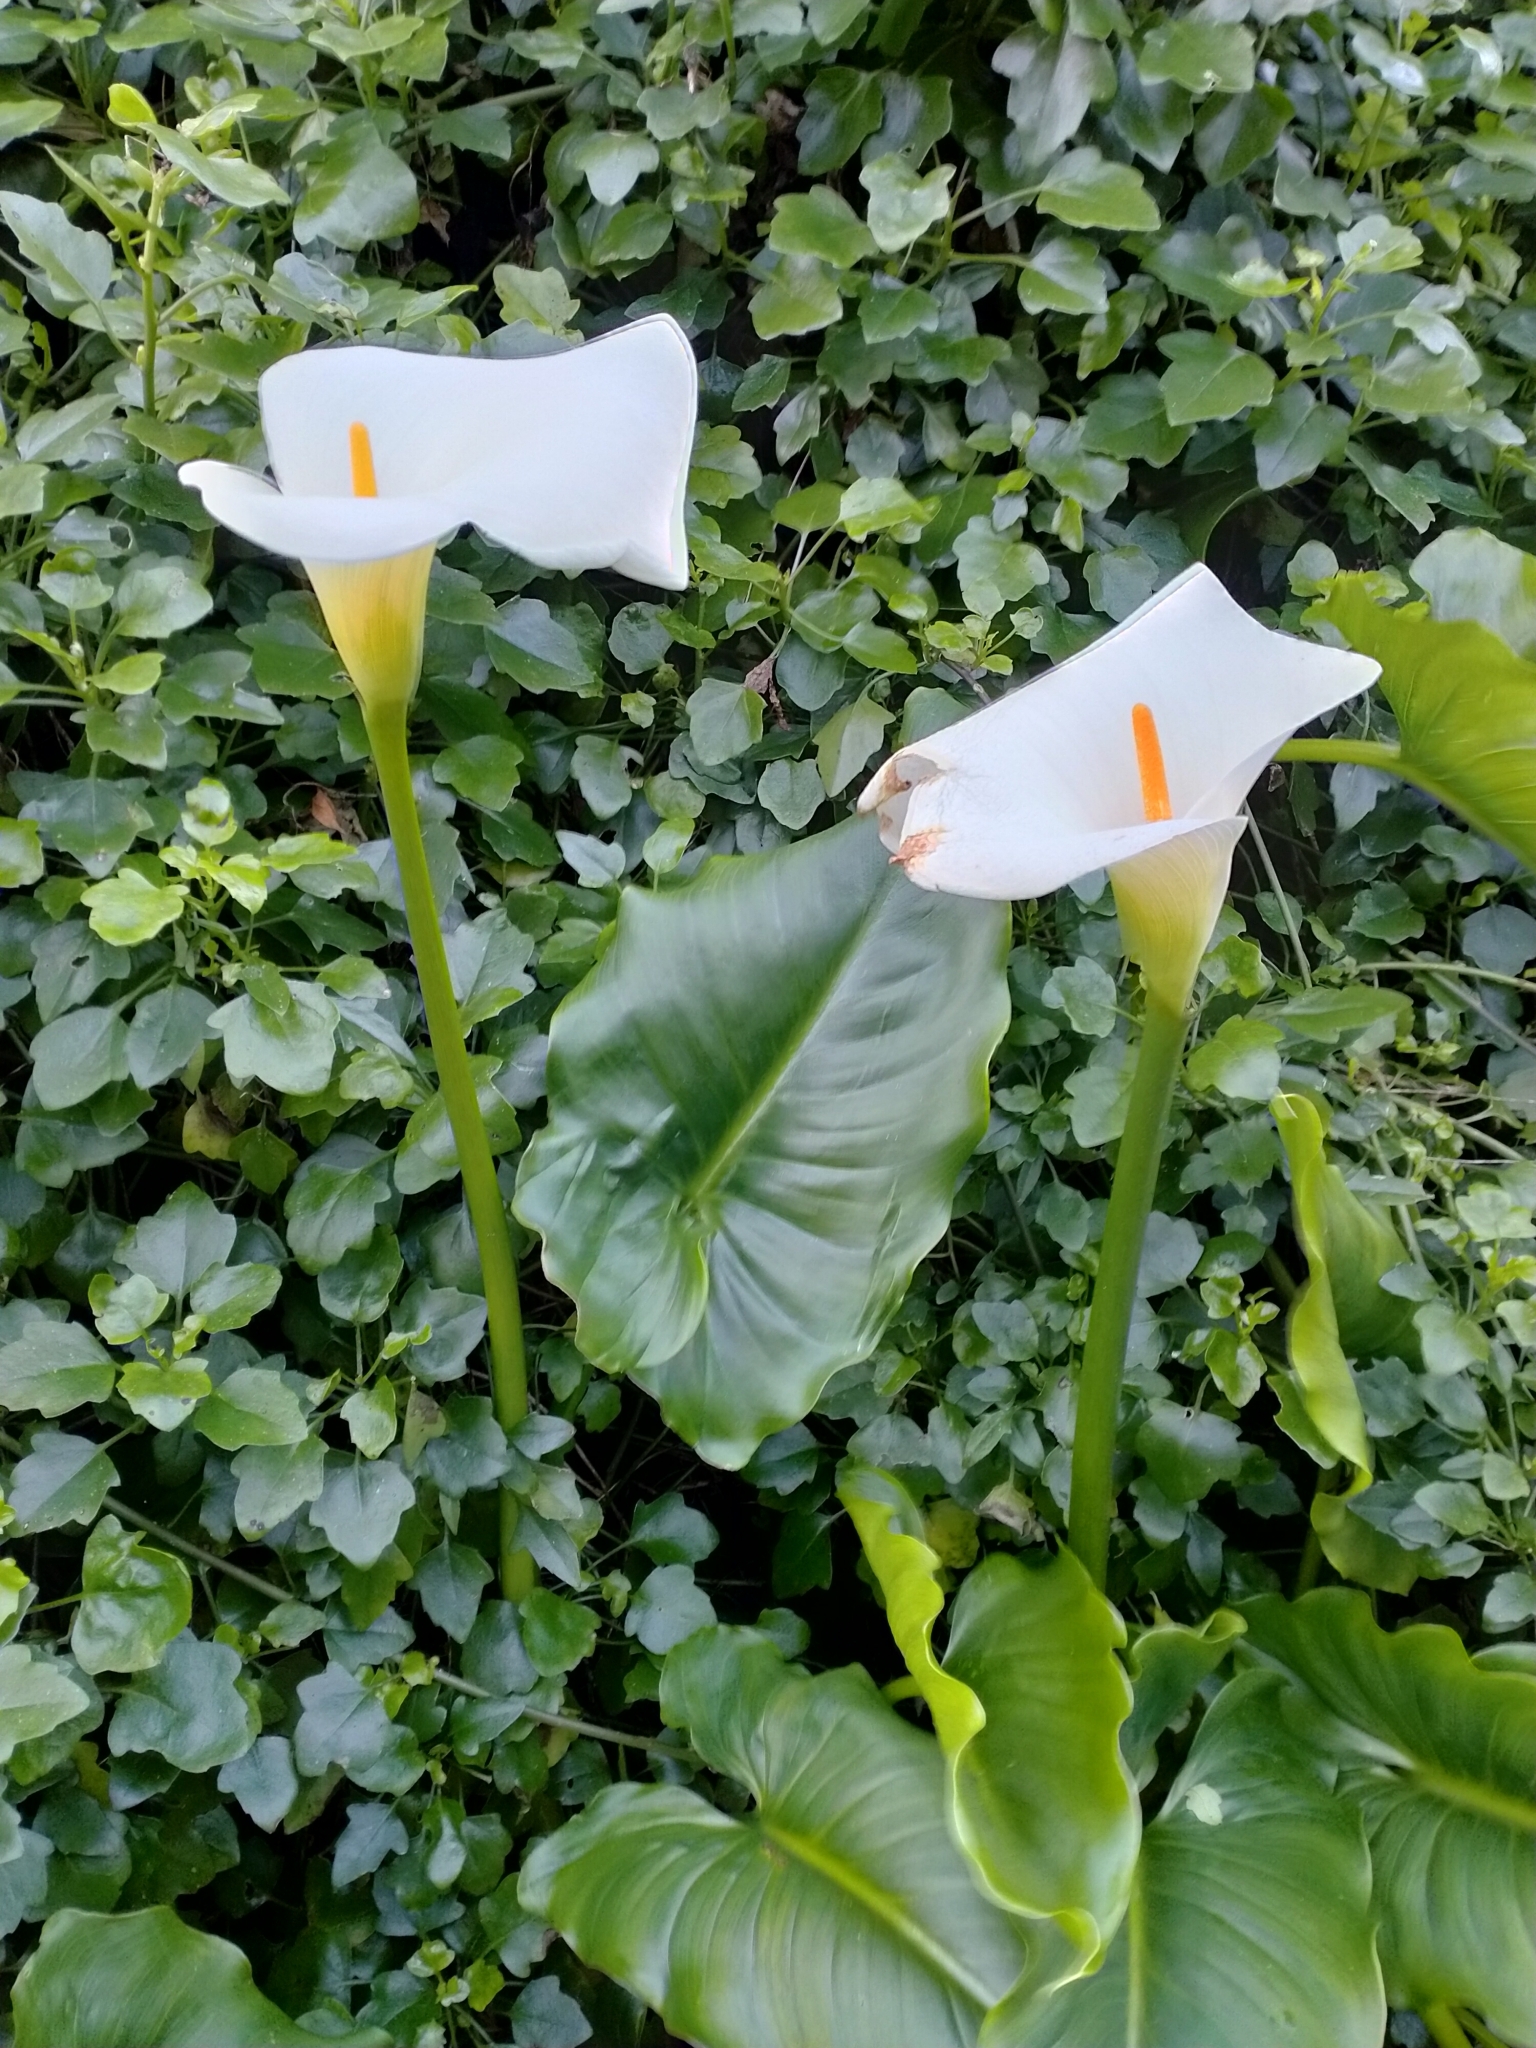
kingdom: Plantae
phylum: Tracheophyta
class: Liliopsida
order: Alismatales
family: Araceae
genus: Zantedeschia
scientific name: Zantedeschia aethiopica
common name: Altar-lily
